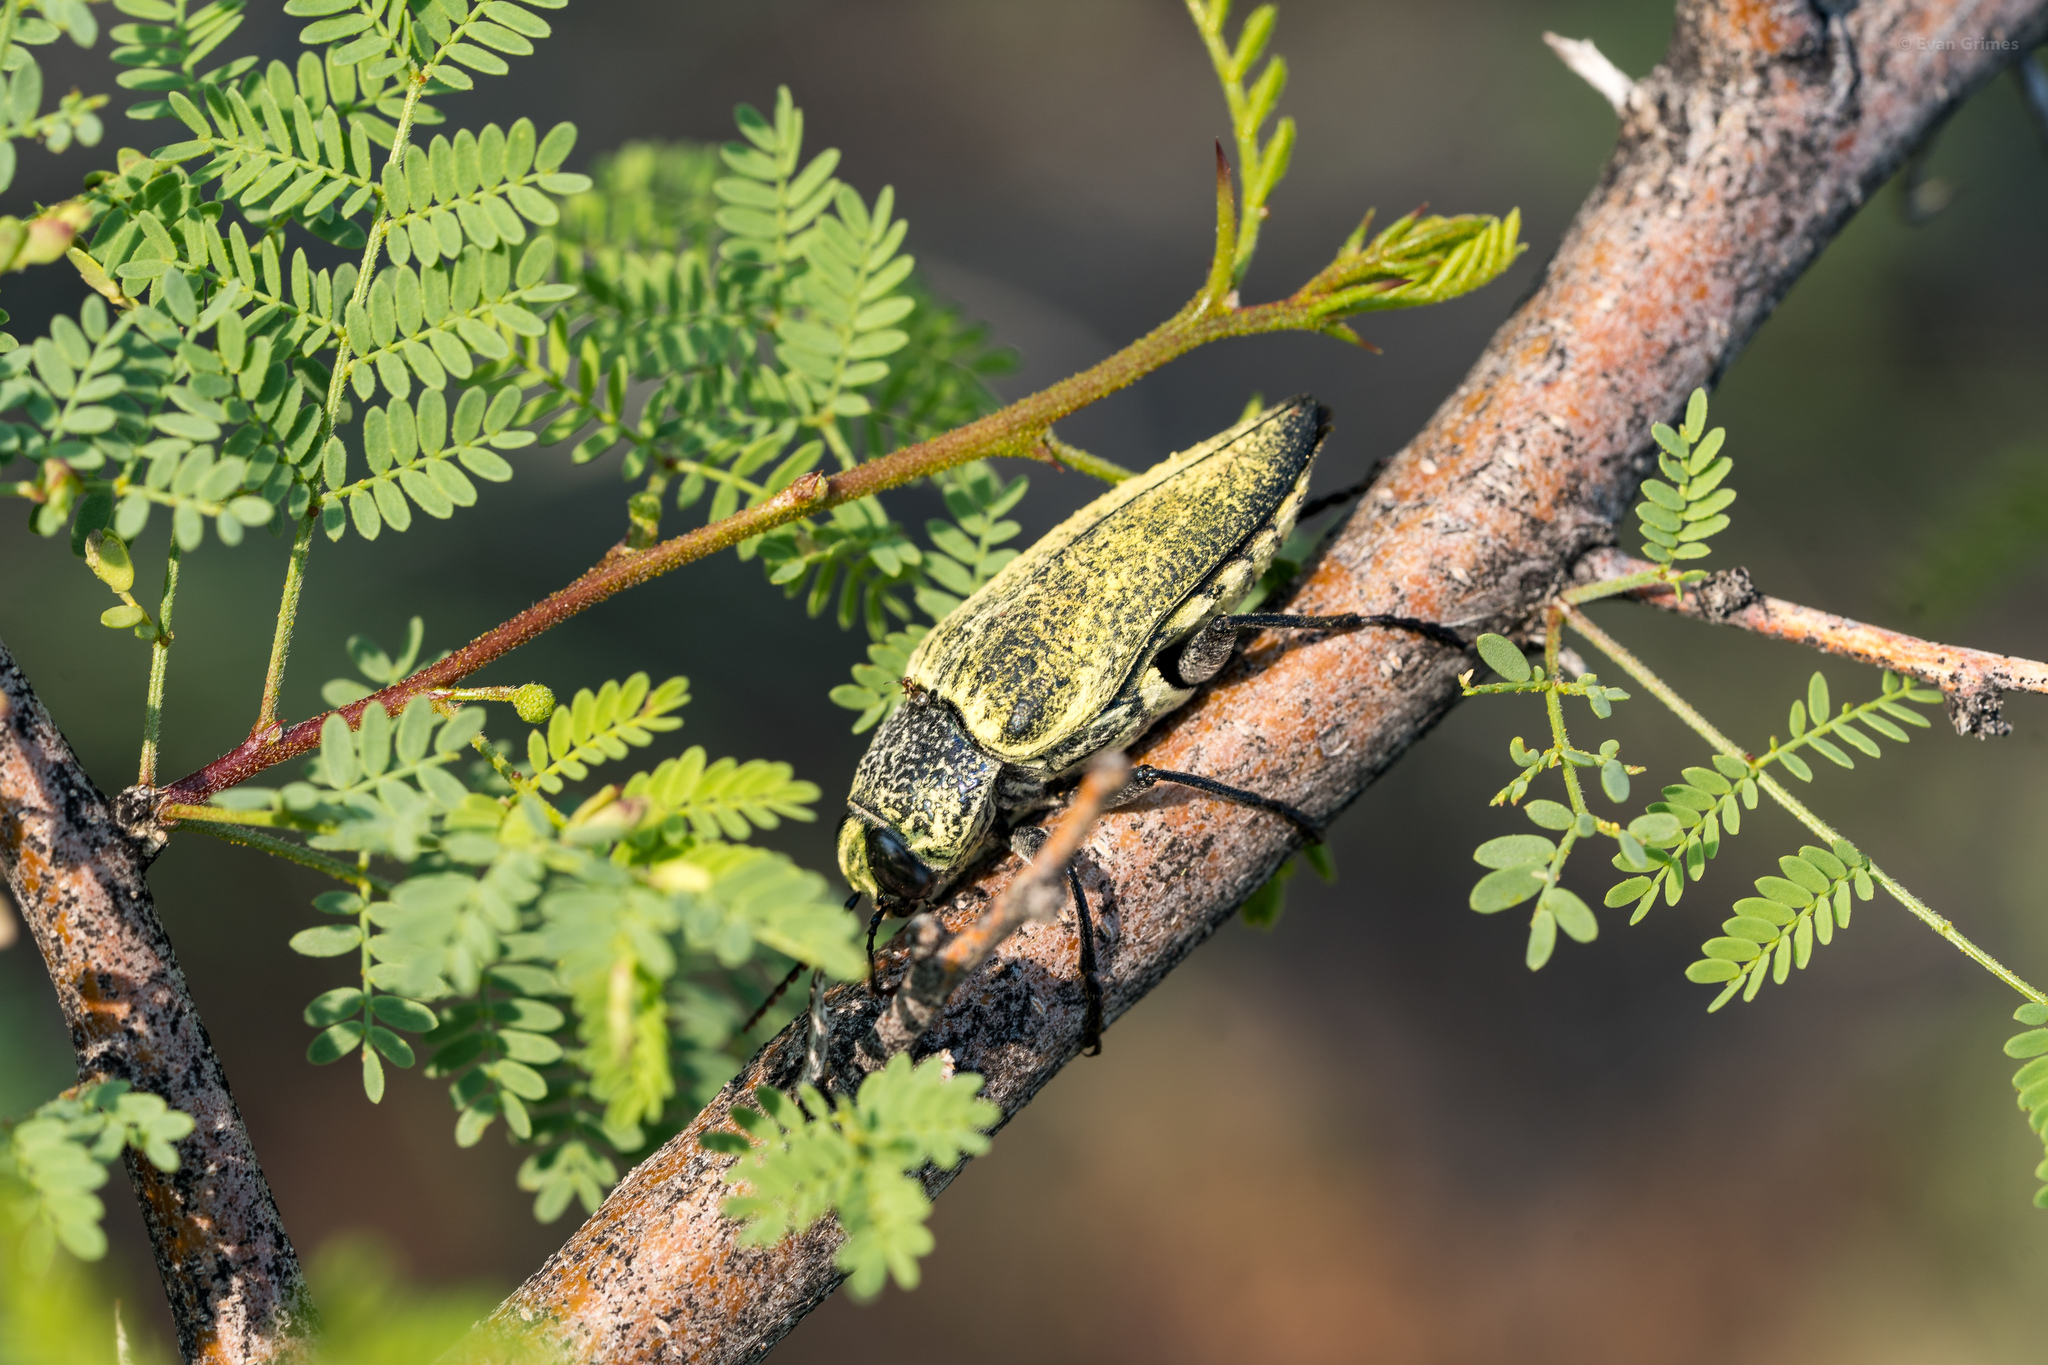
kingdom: Animalia
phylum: Arthropoda
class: Insecta
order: Coleoptera
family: Buprestidae
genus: Gyascutus
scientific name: Gyascutus caelatus
